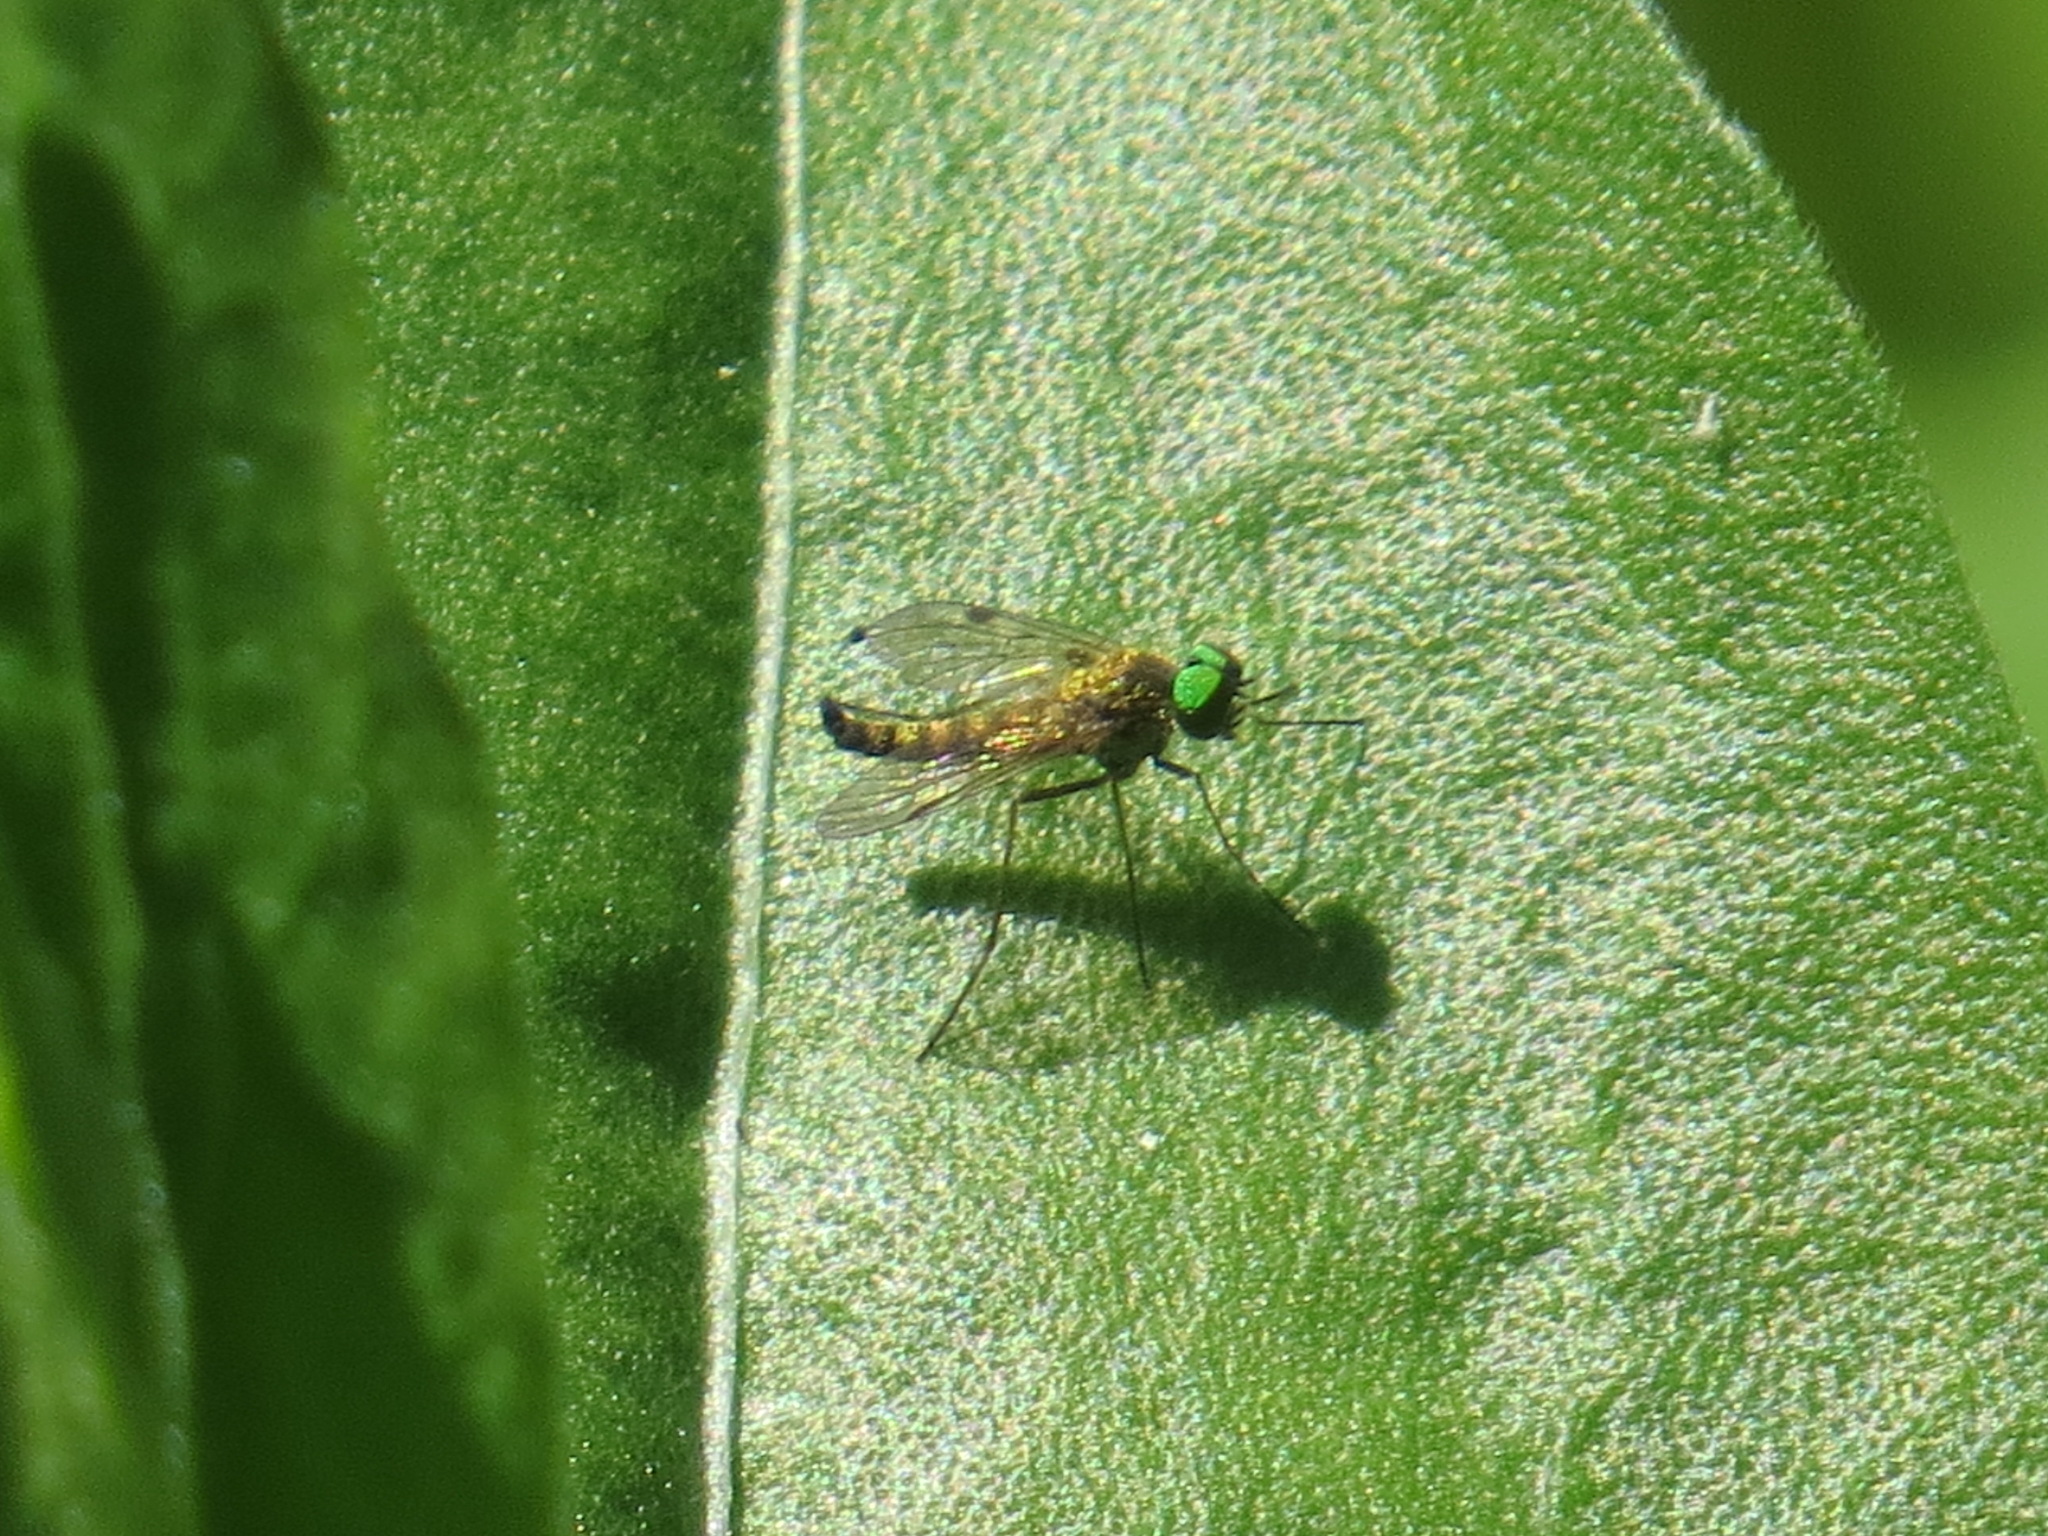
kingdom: Animalia
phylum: Arthropoda
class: Insecta
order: Diptera
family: Rhagionidae
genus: Chrysopilus
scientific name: Chrysopilus
